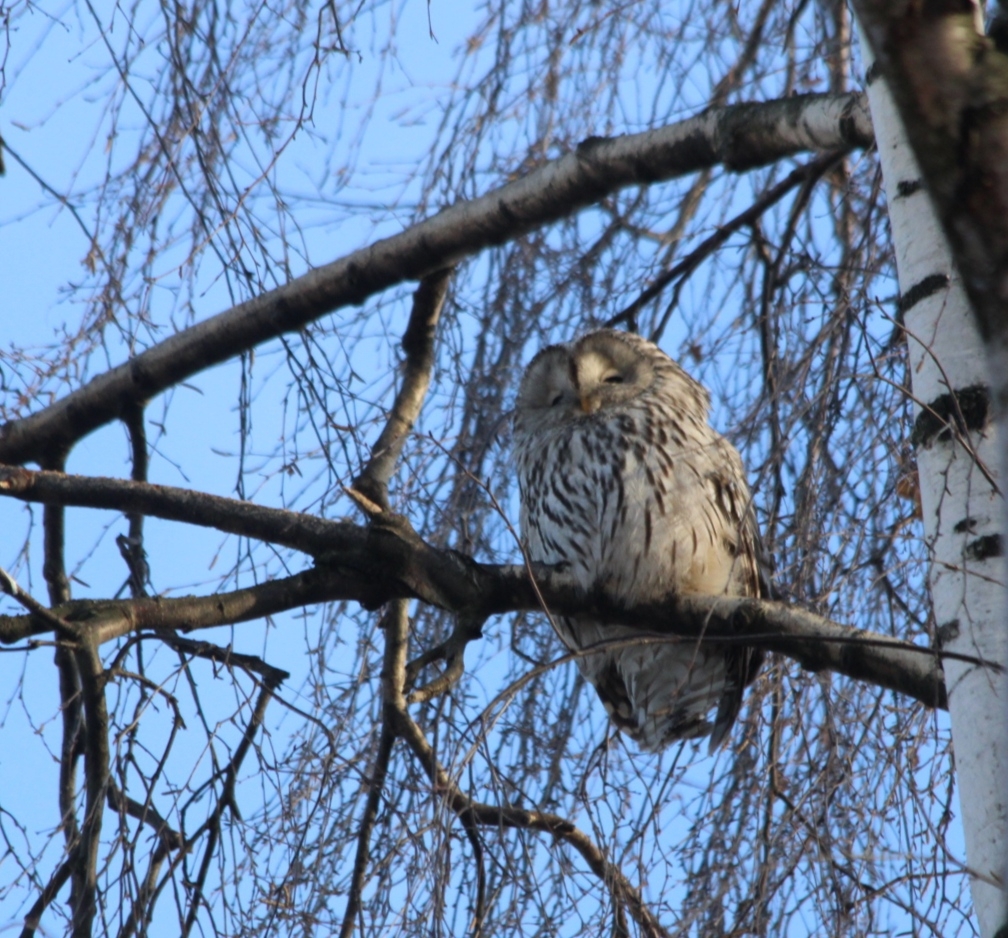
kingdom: Animalia
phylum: Chordata
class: Aves
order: Strigiformes
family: Strigidae
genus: Strix
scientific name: Strix uralensis
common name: Ural owl
